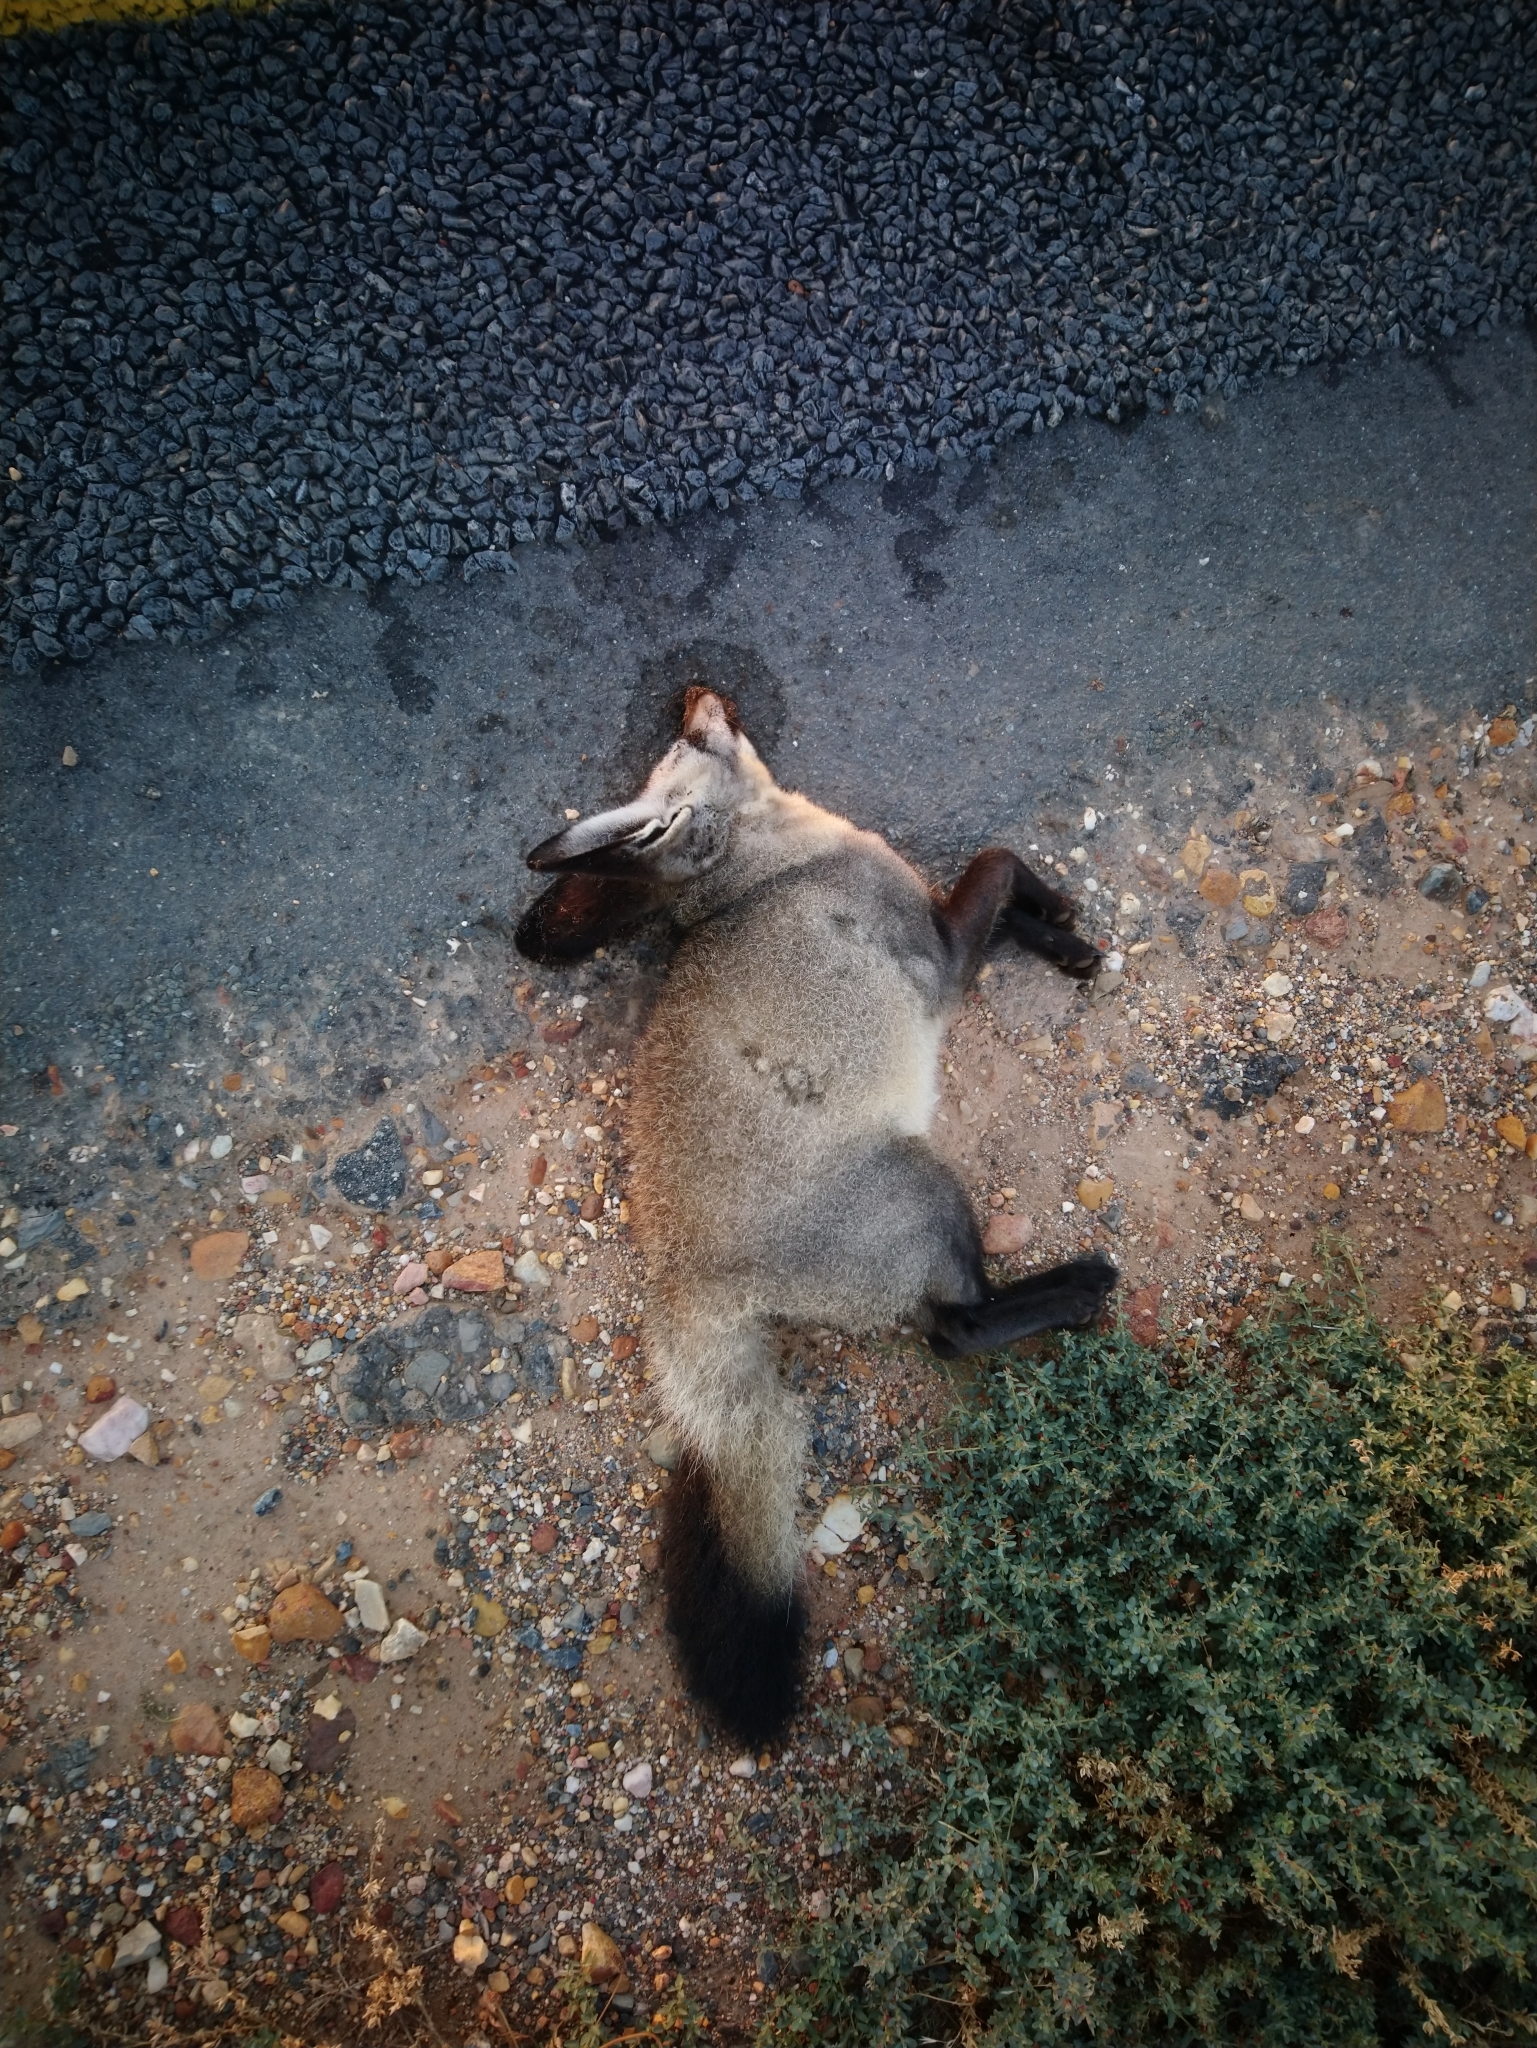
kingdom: Animalia
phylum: Chordata
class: Mammalia
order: Carnivora
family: Canidae
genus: Otocyon
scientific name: Otocyon megalotis
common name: Bat-eared fox
